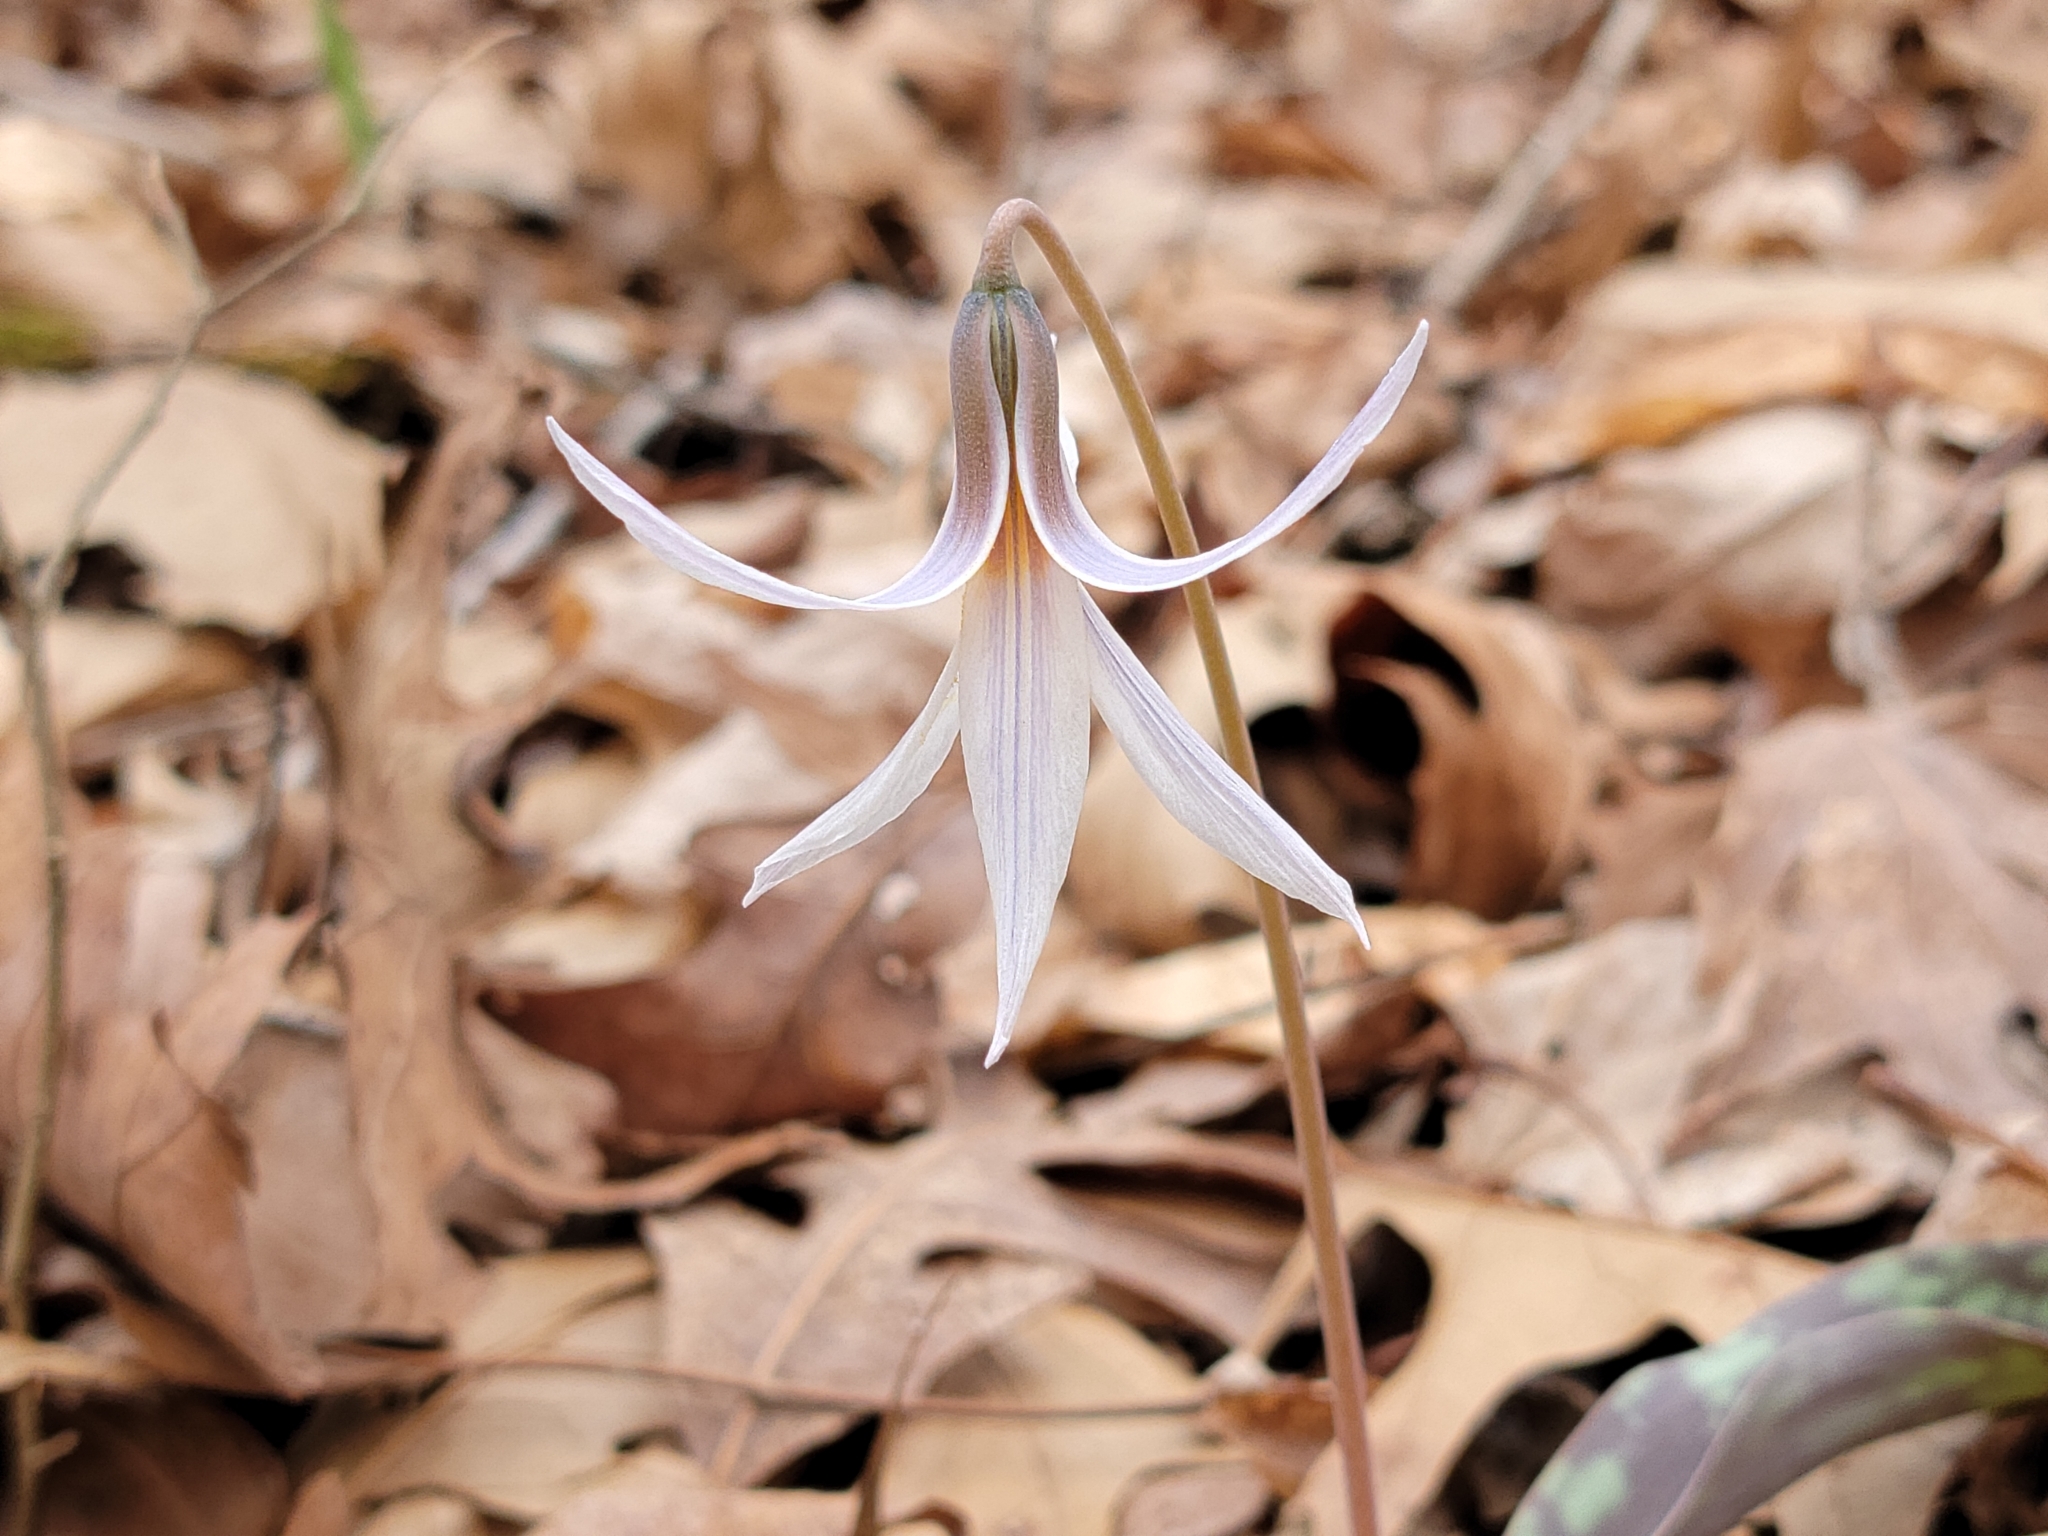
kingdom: Plantae
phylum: Tracheophyta
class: Liliopsida
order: Liliales
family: Liliaceae
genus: Erythronium
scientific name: Erythronium albidum
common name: White trout-lily
